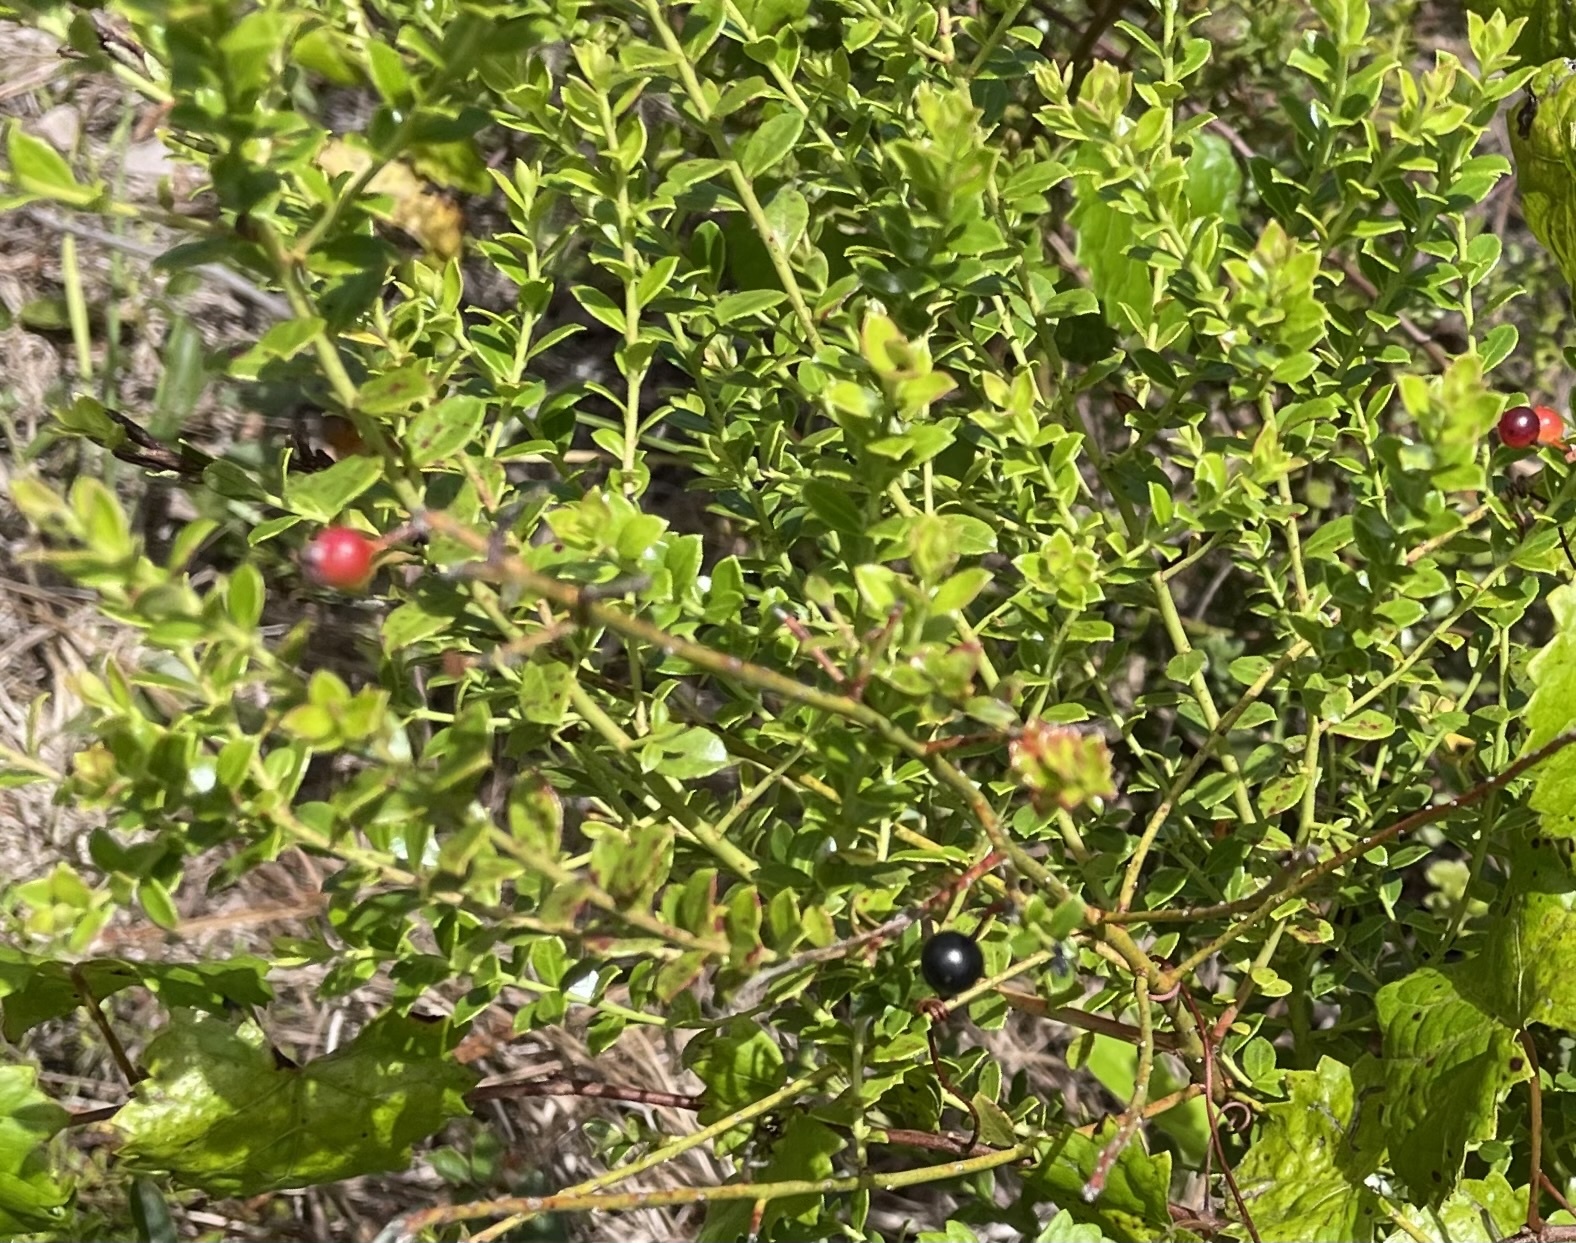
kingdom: Plantae
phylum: Tracheophyta
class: Magnoliopsida
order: Ericales
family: Ericaceae
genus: Vaccinium
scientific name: Vaccinium myrsinites
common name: Evergreen blueberry
